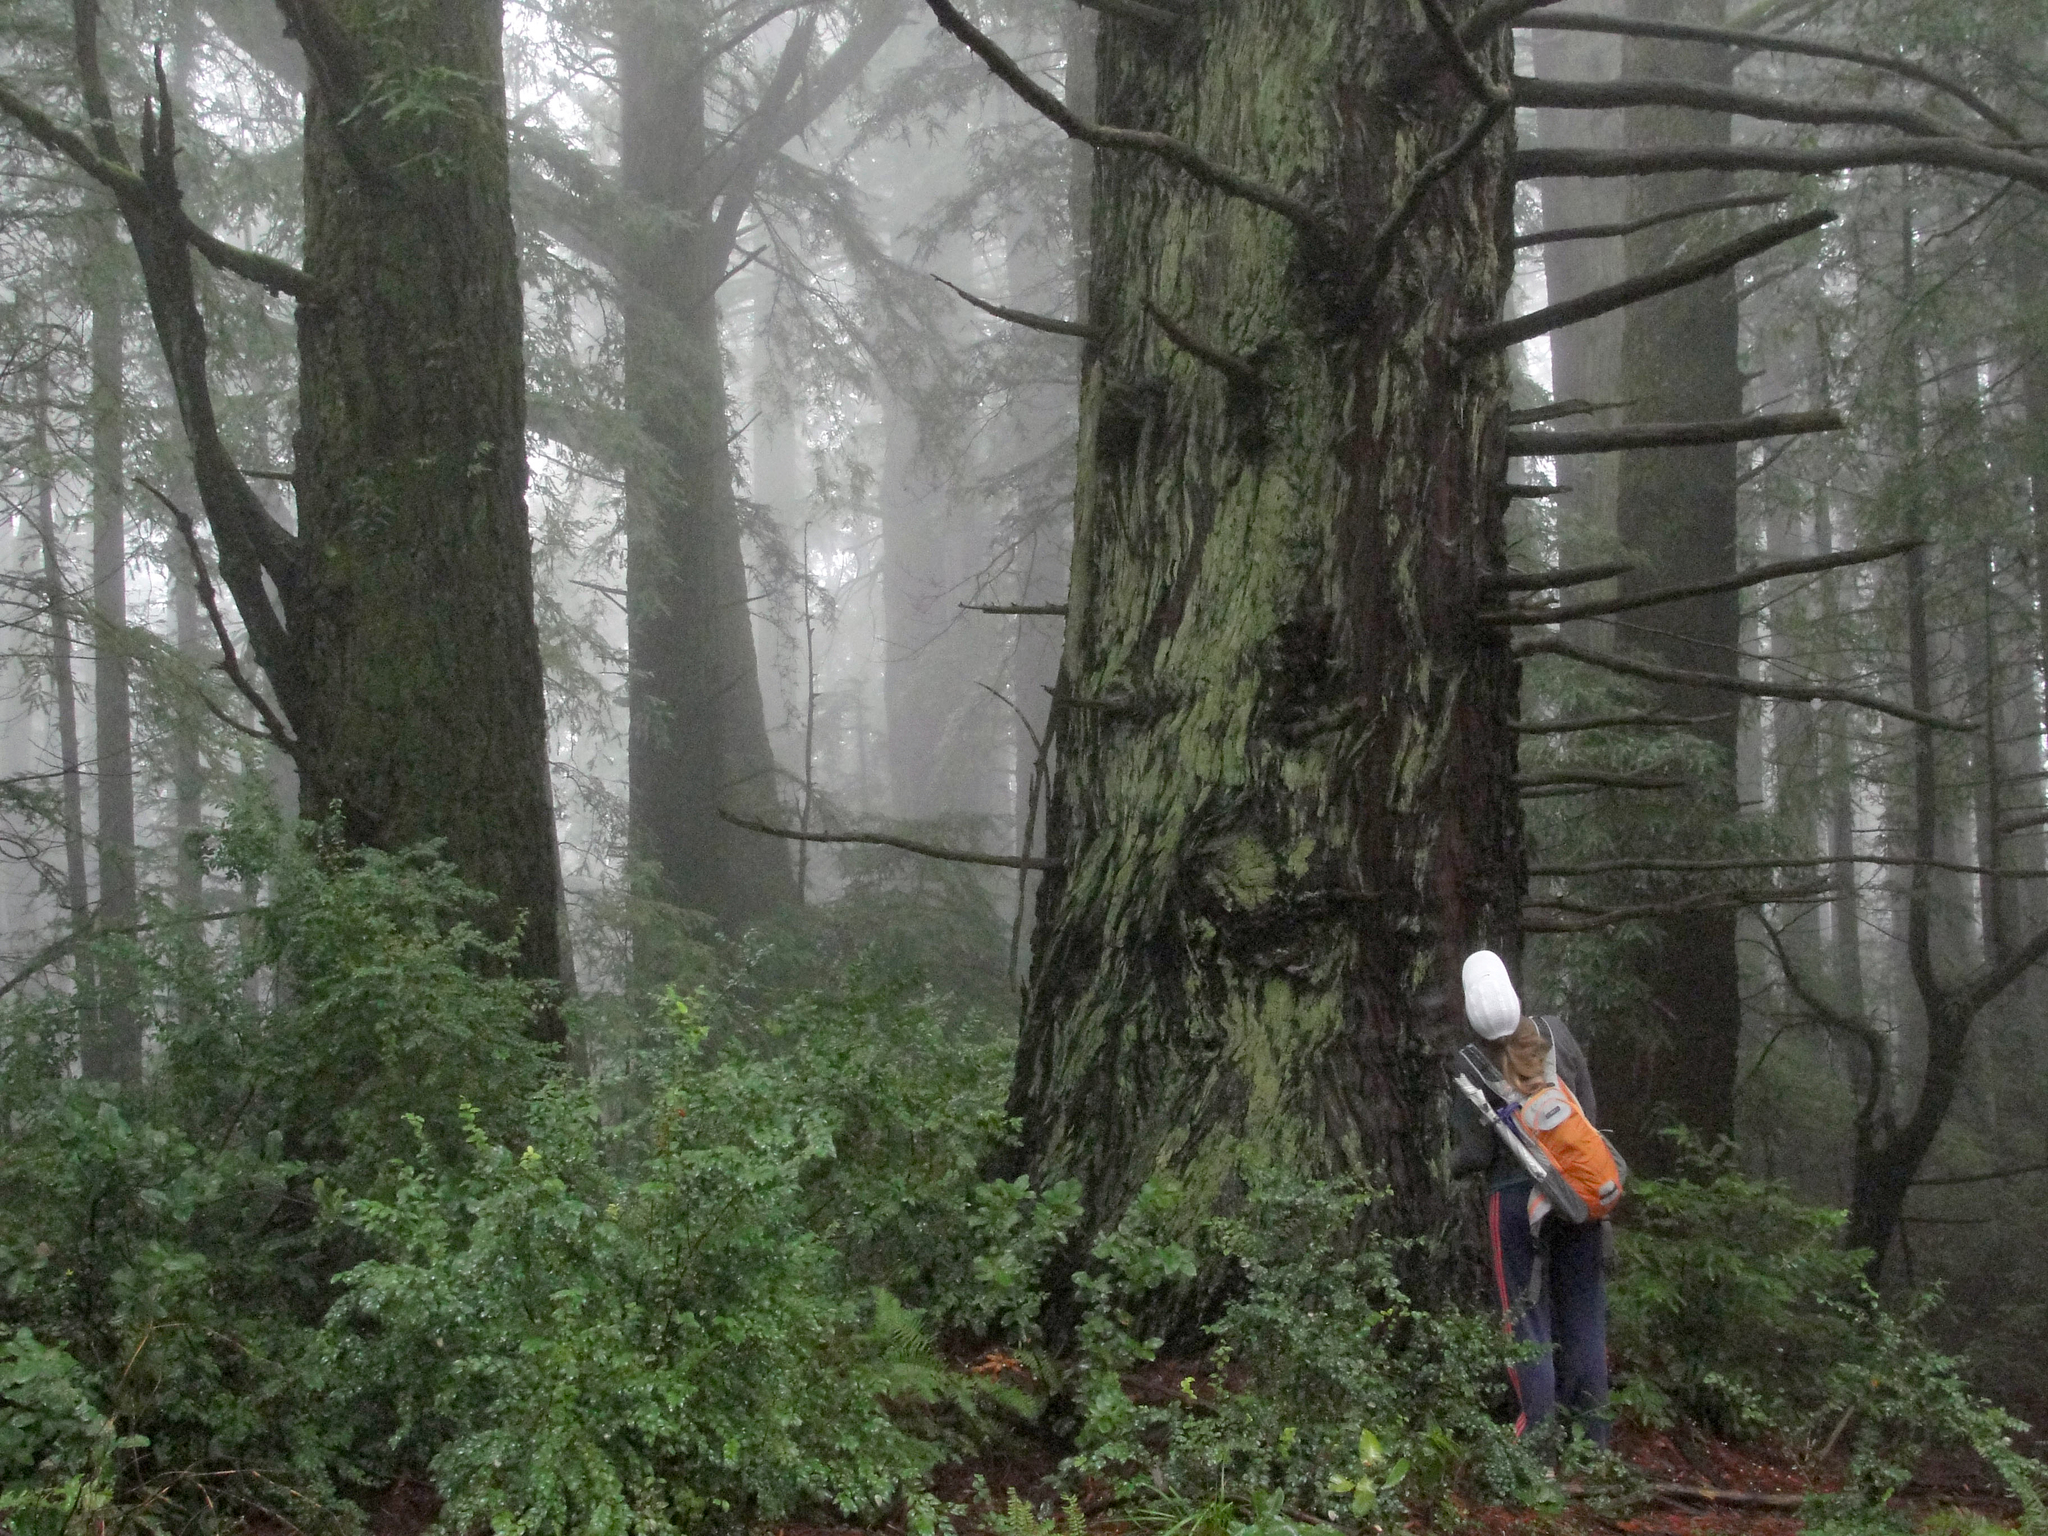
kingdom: Plantae
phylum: Tracheophyta
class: Pinopsida
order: Pinales
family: Cupressaceae
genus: Sequoia
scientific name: Sequoia sempervirens
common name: Coast redwood
